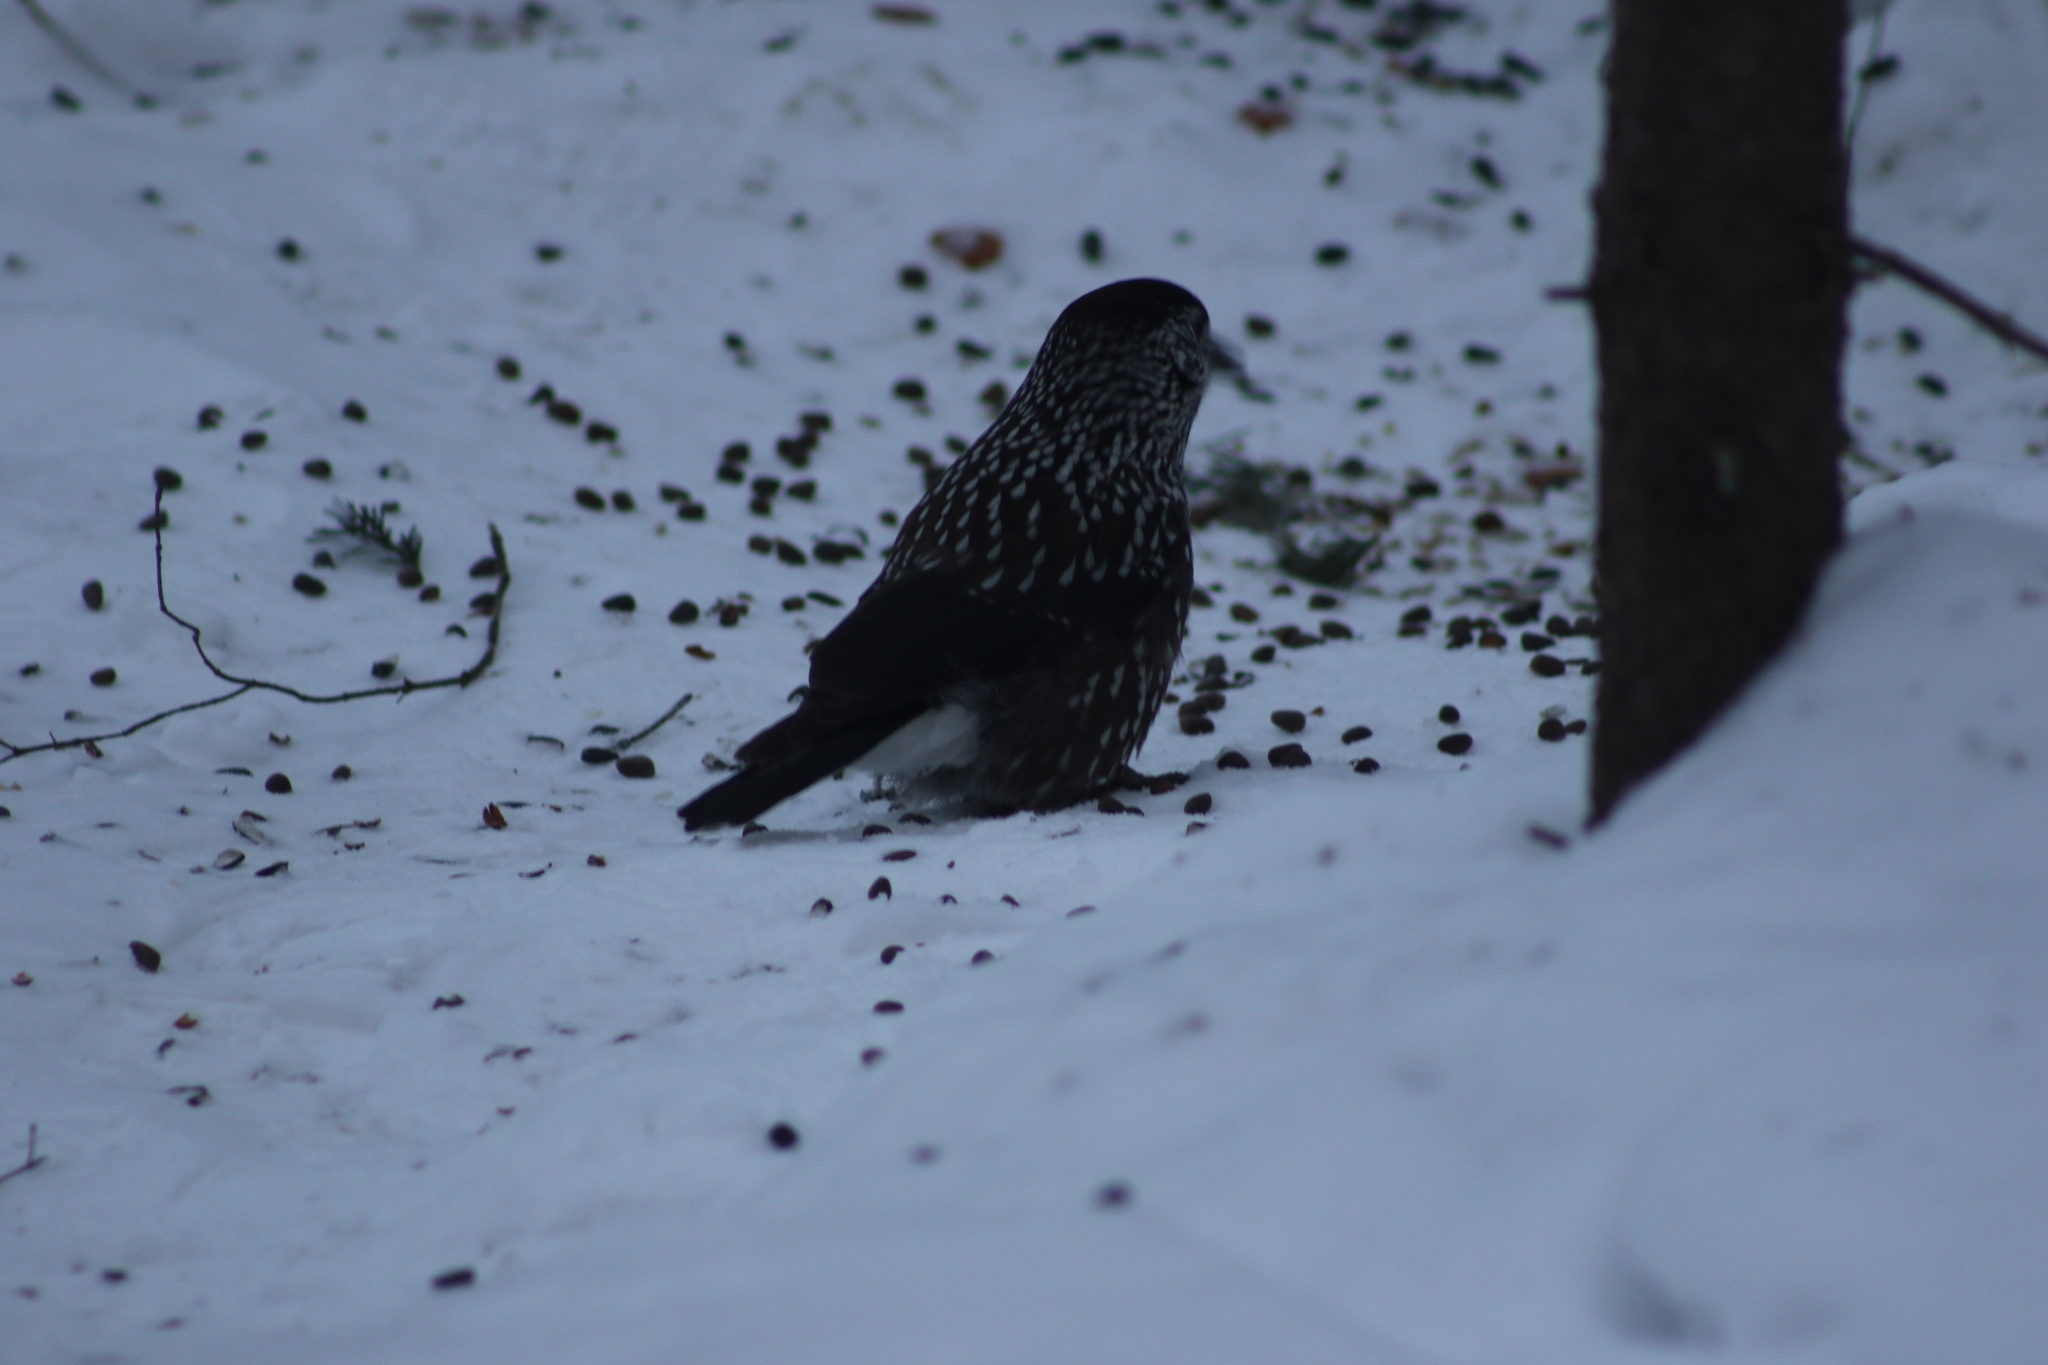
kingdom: Animalia
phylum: Chordata
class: Aves
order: Passeriformes
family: Corvidae
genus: Nucifraga
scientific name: Nucifraga caryocatactes
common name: Spotted nutcracker
